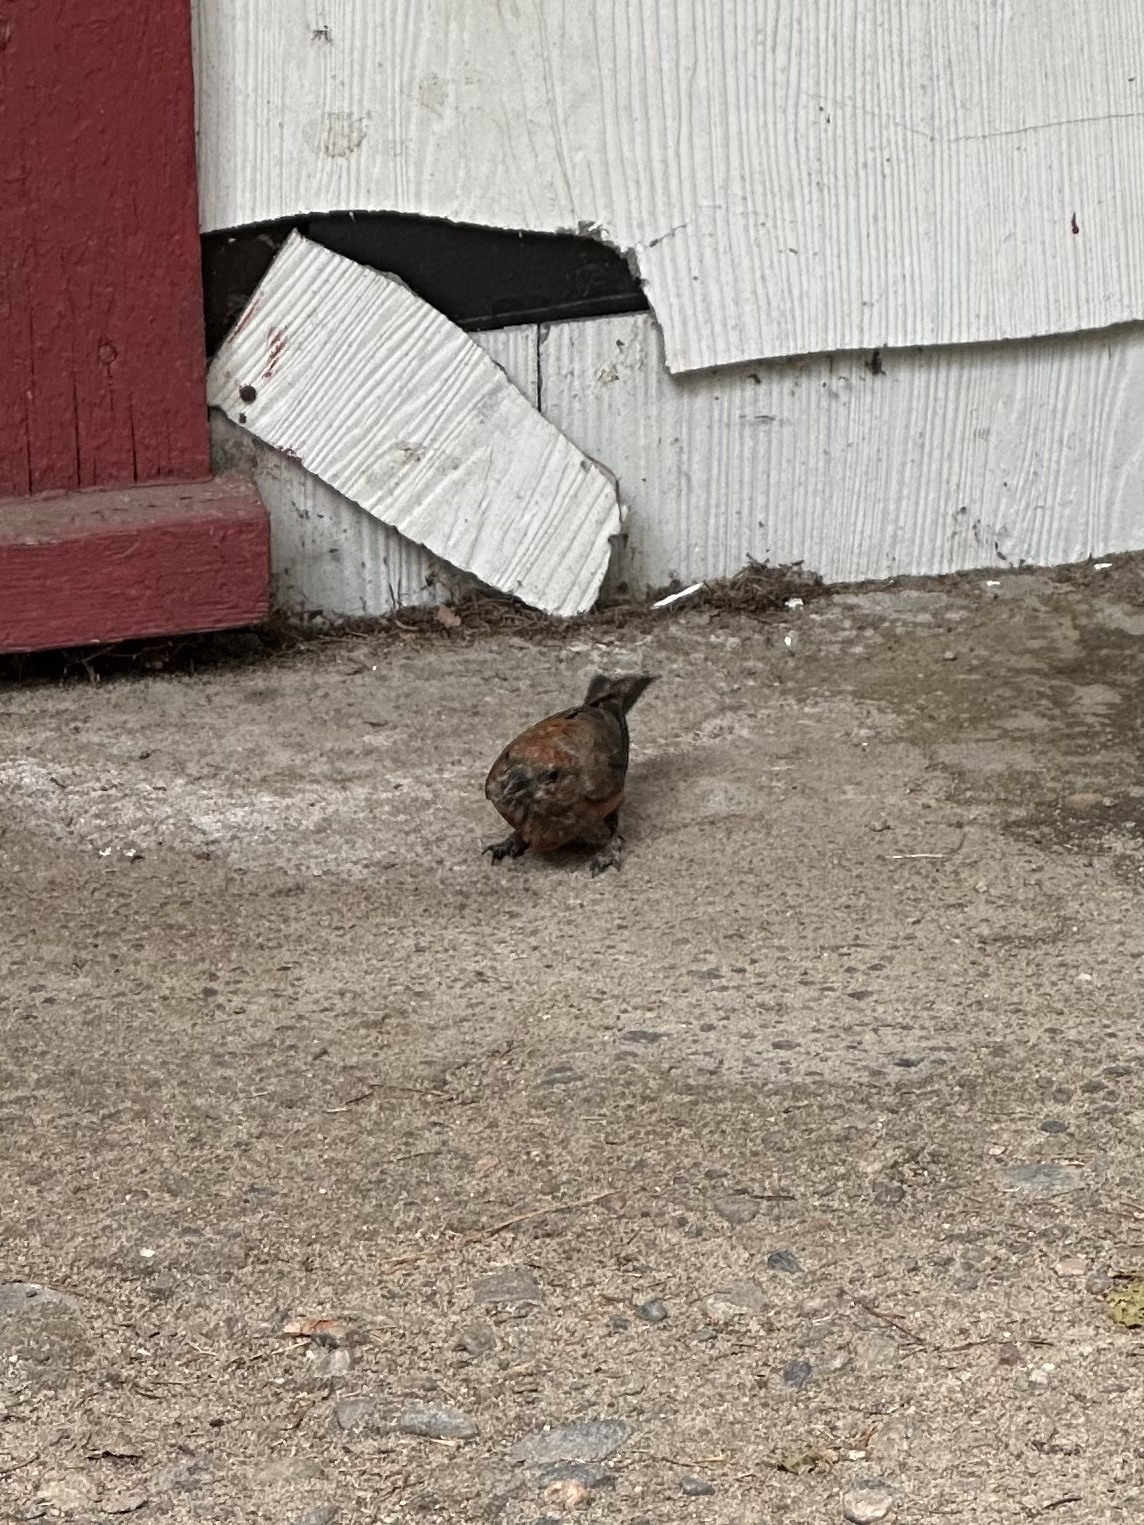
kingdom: Animalia
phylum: Chordata
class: Aves
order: Passeriformes
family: Fringillidae
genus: Loxia
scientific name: Loxia curvirostra
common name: Red crossbill
